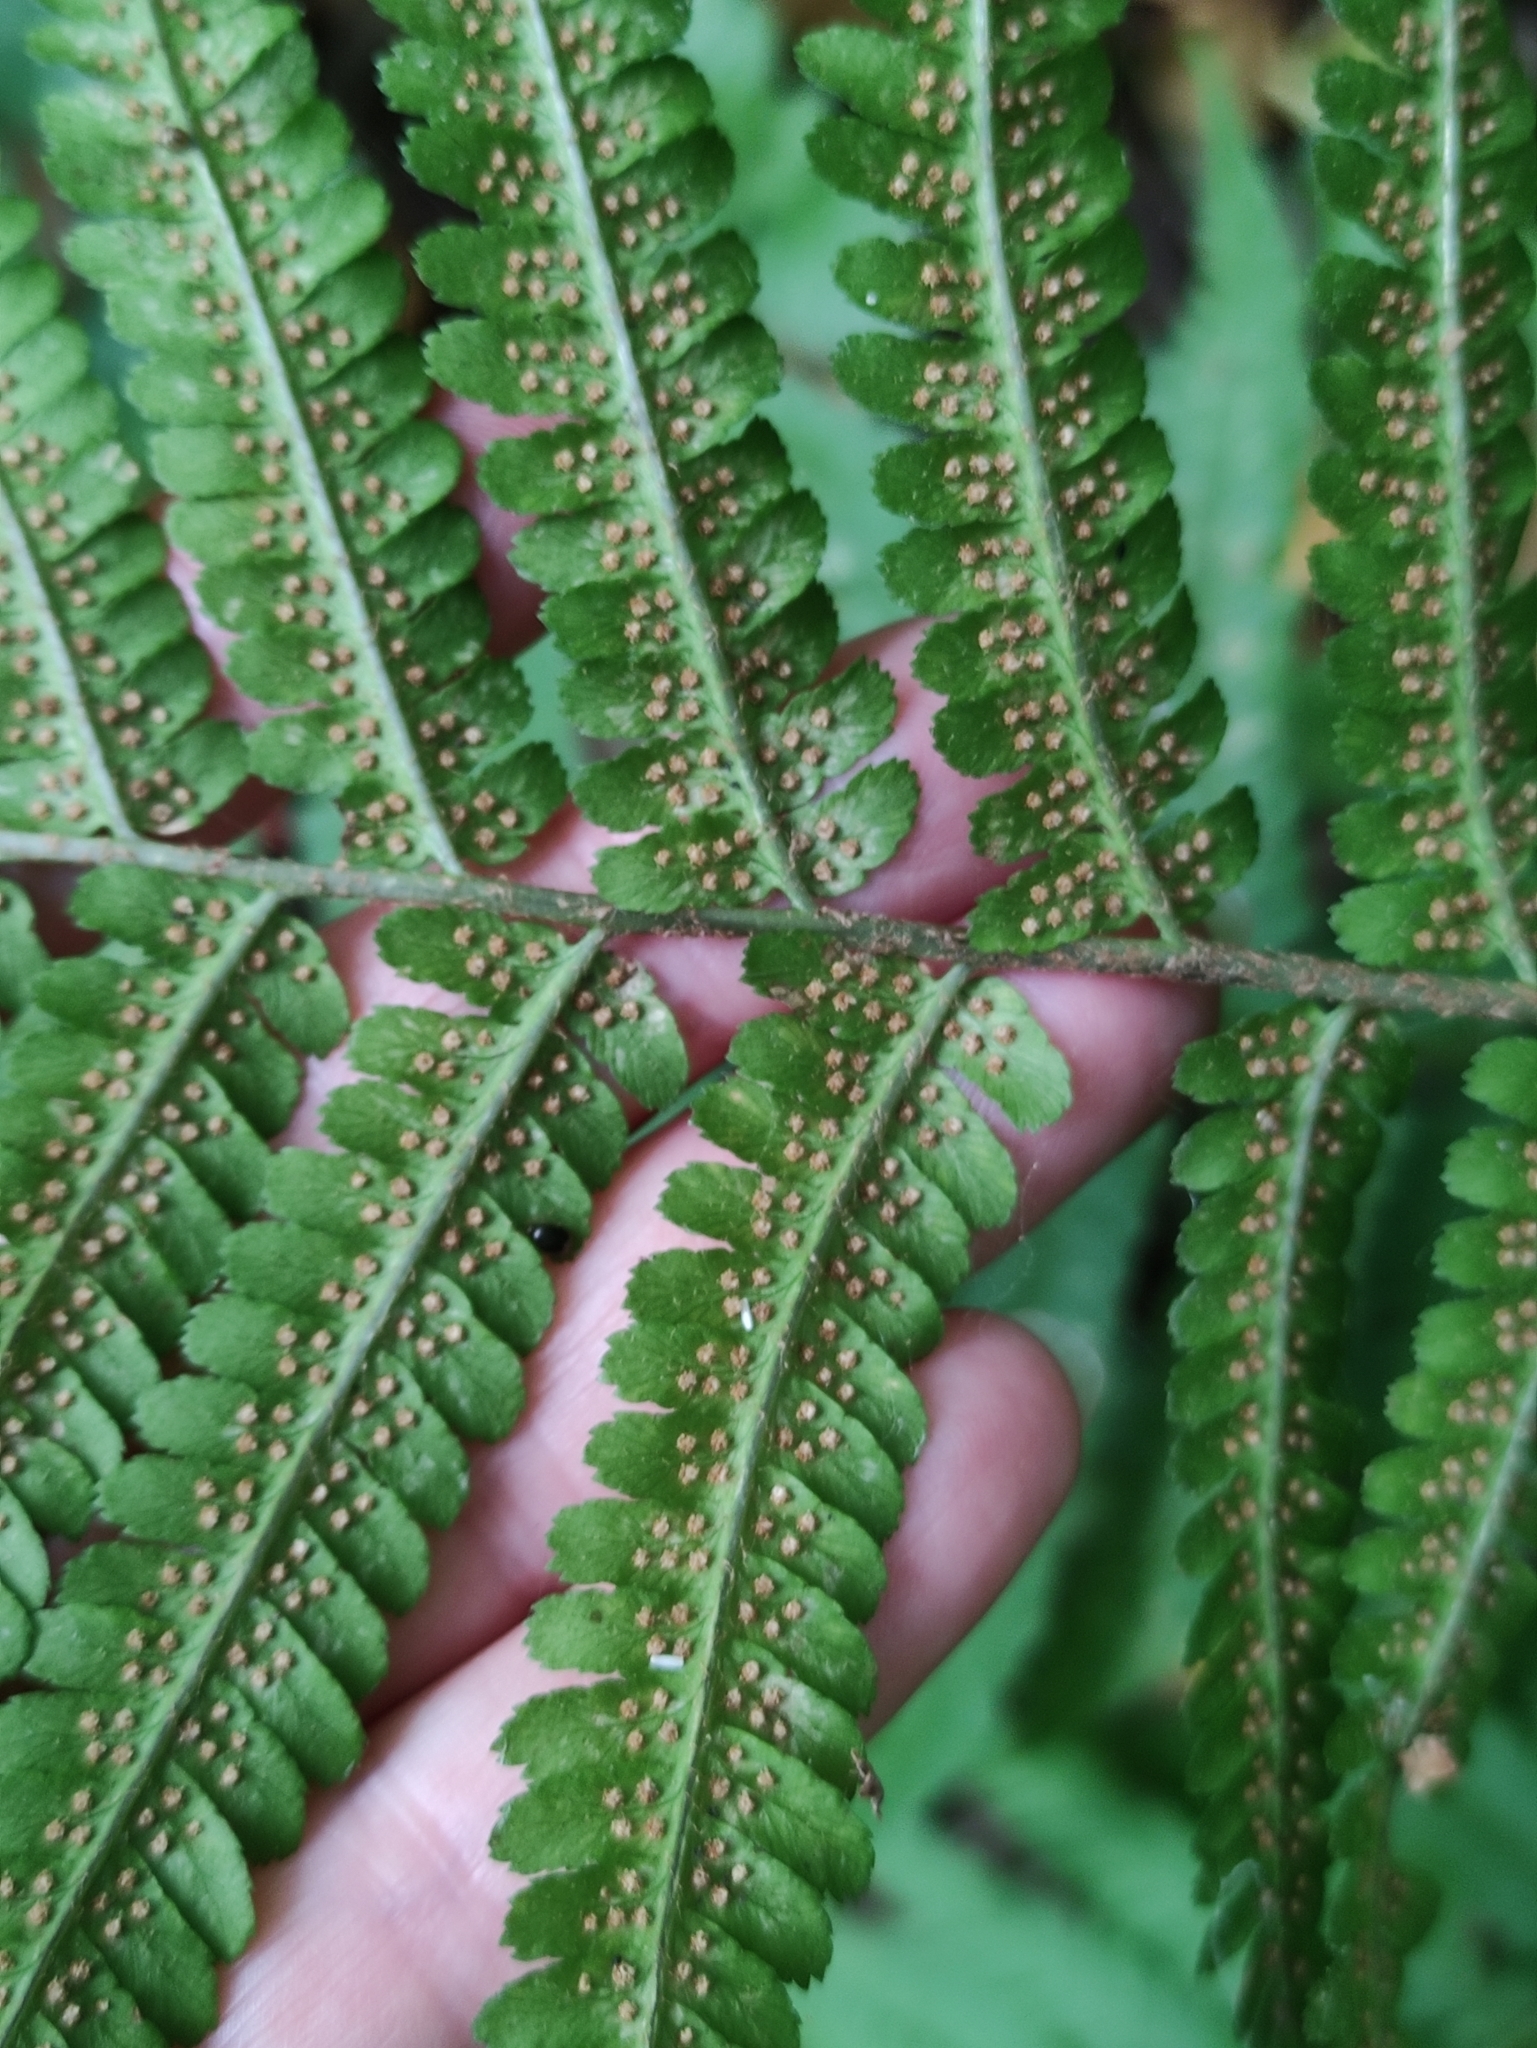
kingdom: Plantae
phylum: Tracheophyta
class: Polypodiopsida
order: Polypodiales
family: Dryopteridaceae
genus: Dryopteris
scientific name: Dryopteris filix-mas
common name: Male fern
